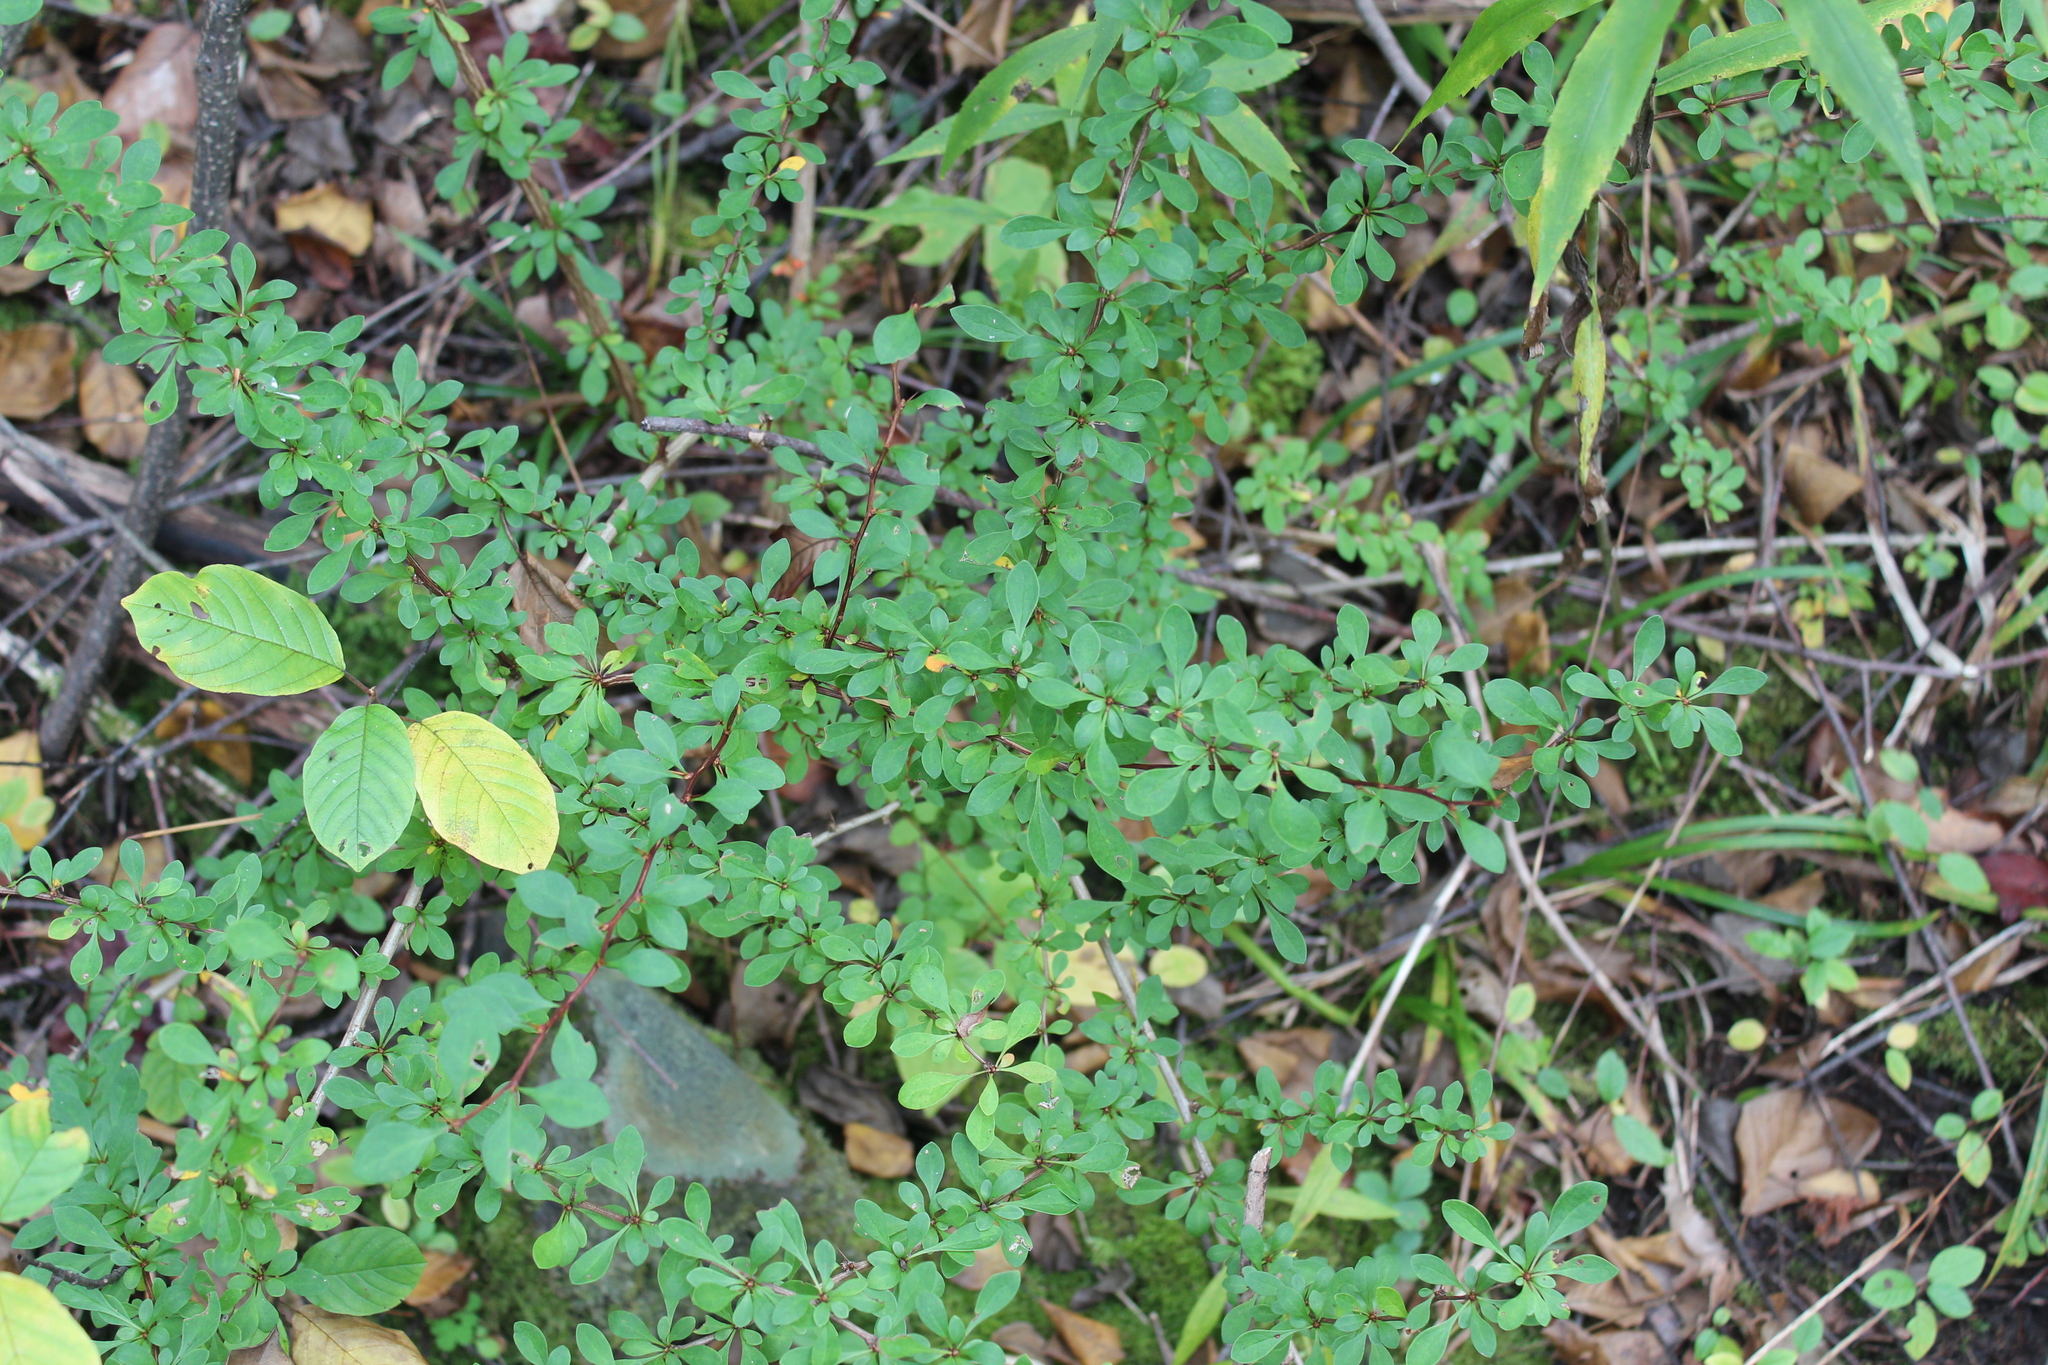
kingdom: Plantae
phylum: Tracheophyta
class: Magnoliopsida
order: Ranunculales
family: Berberidaceae
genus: Berberis
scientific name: Berberis thunbergii
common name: Japanese barberry
